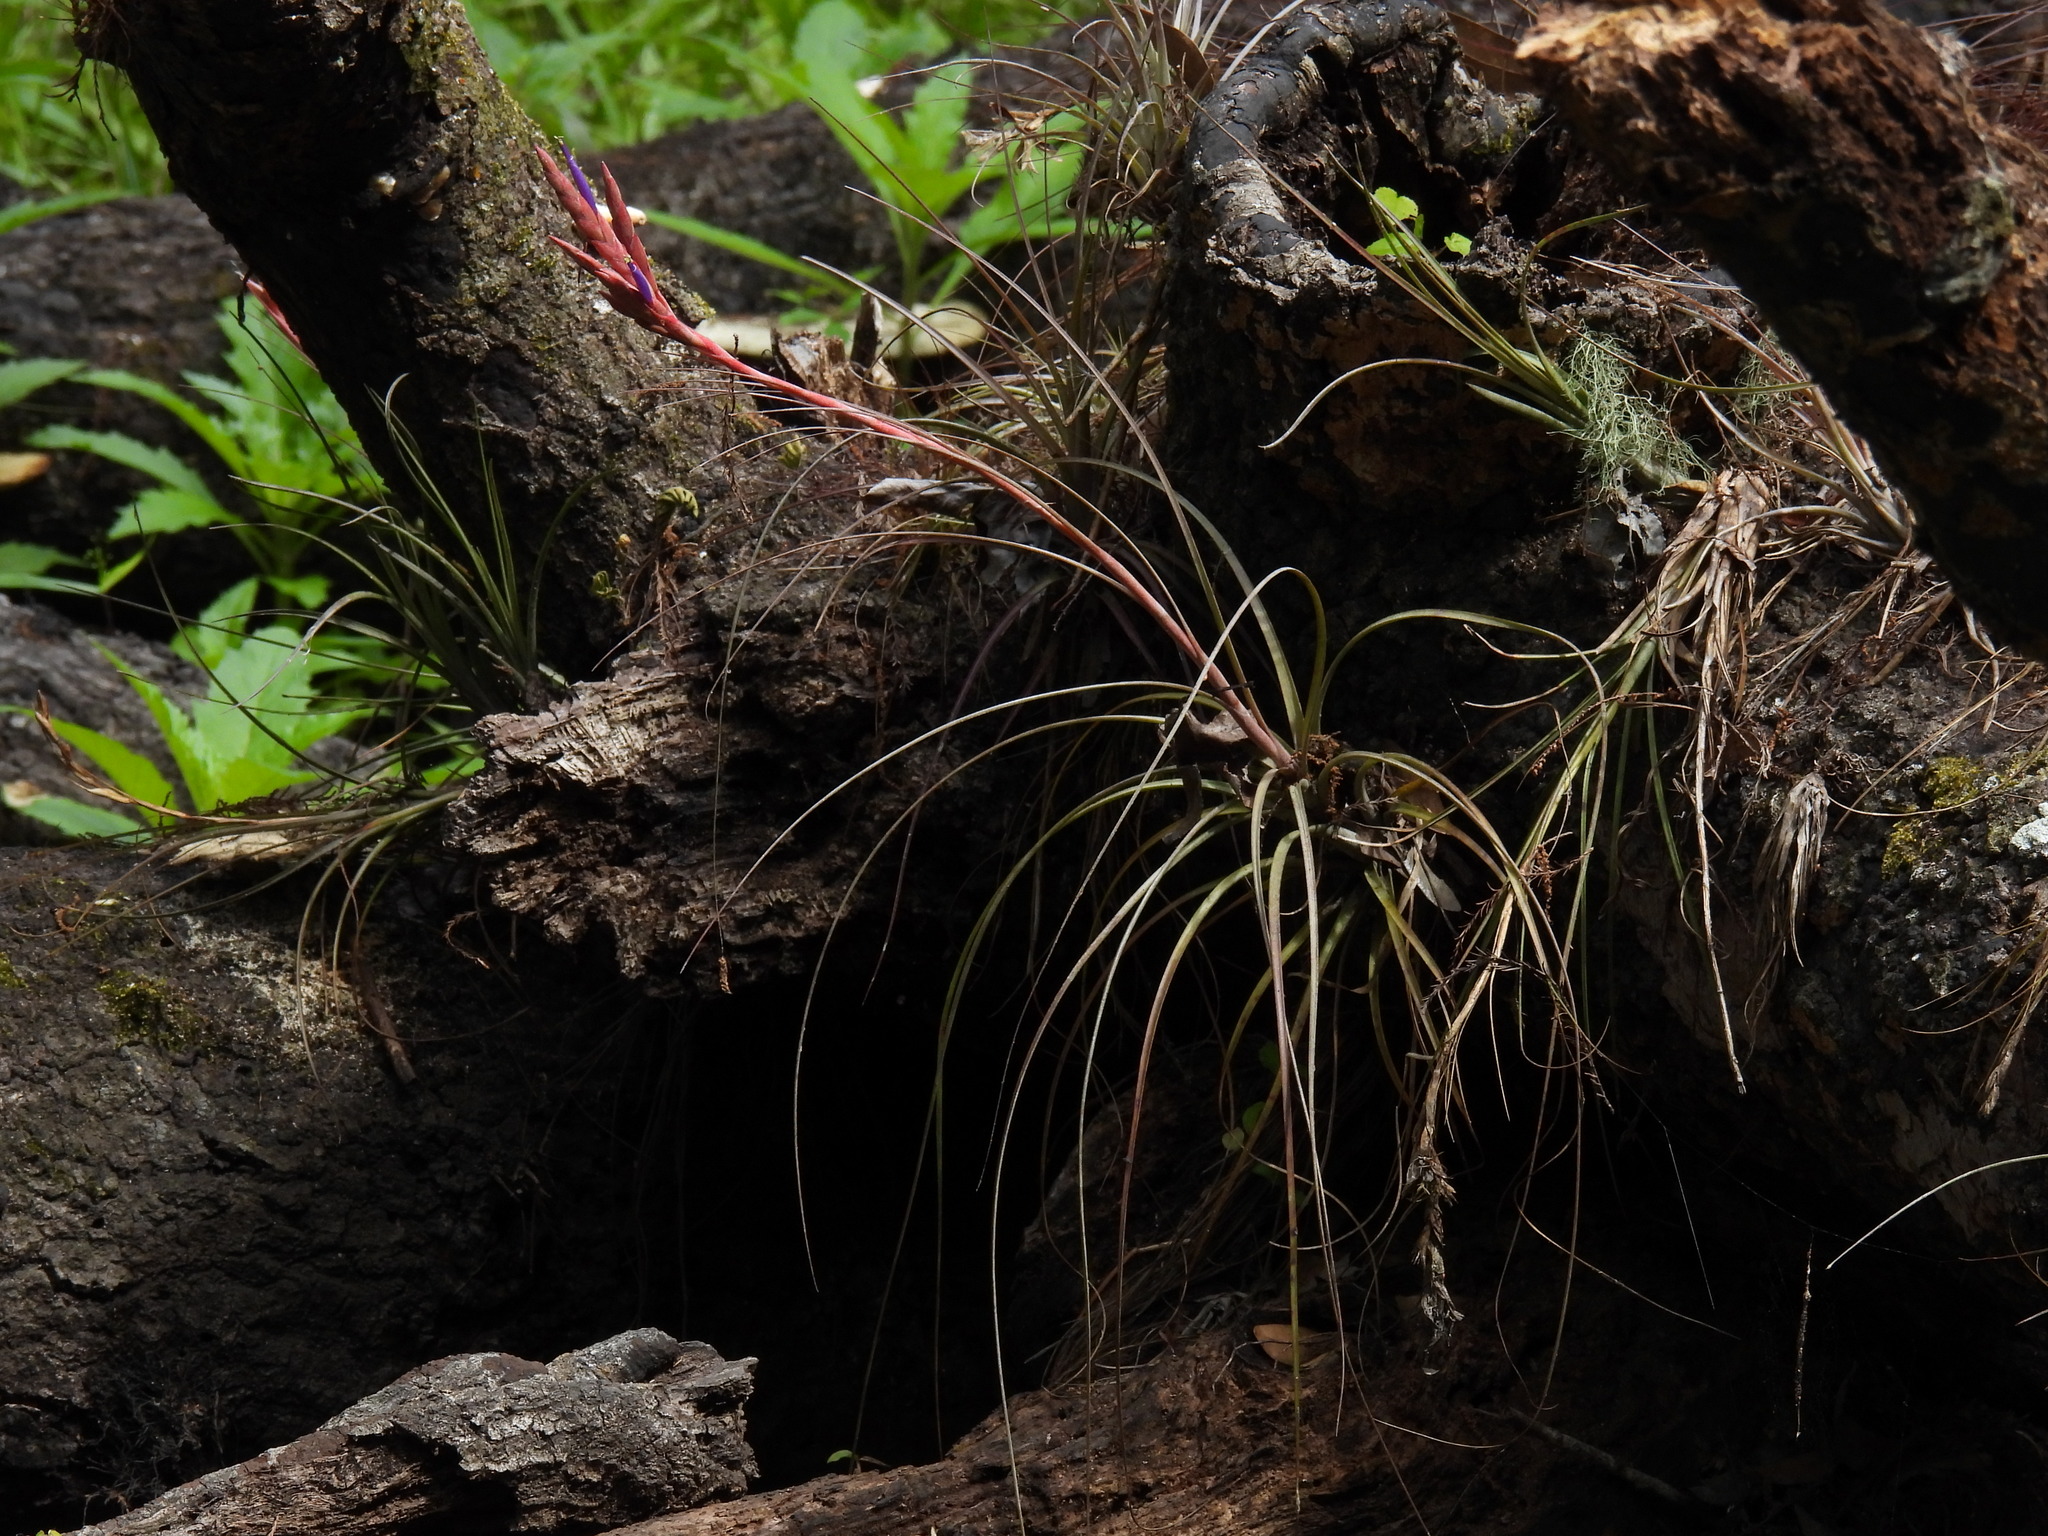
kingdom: Plantae
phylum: Tracheophyta
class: Liliopsida
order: Poales
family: Bromeliaceae
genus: Tillandsia
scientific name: Tillandsia simulata
